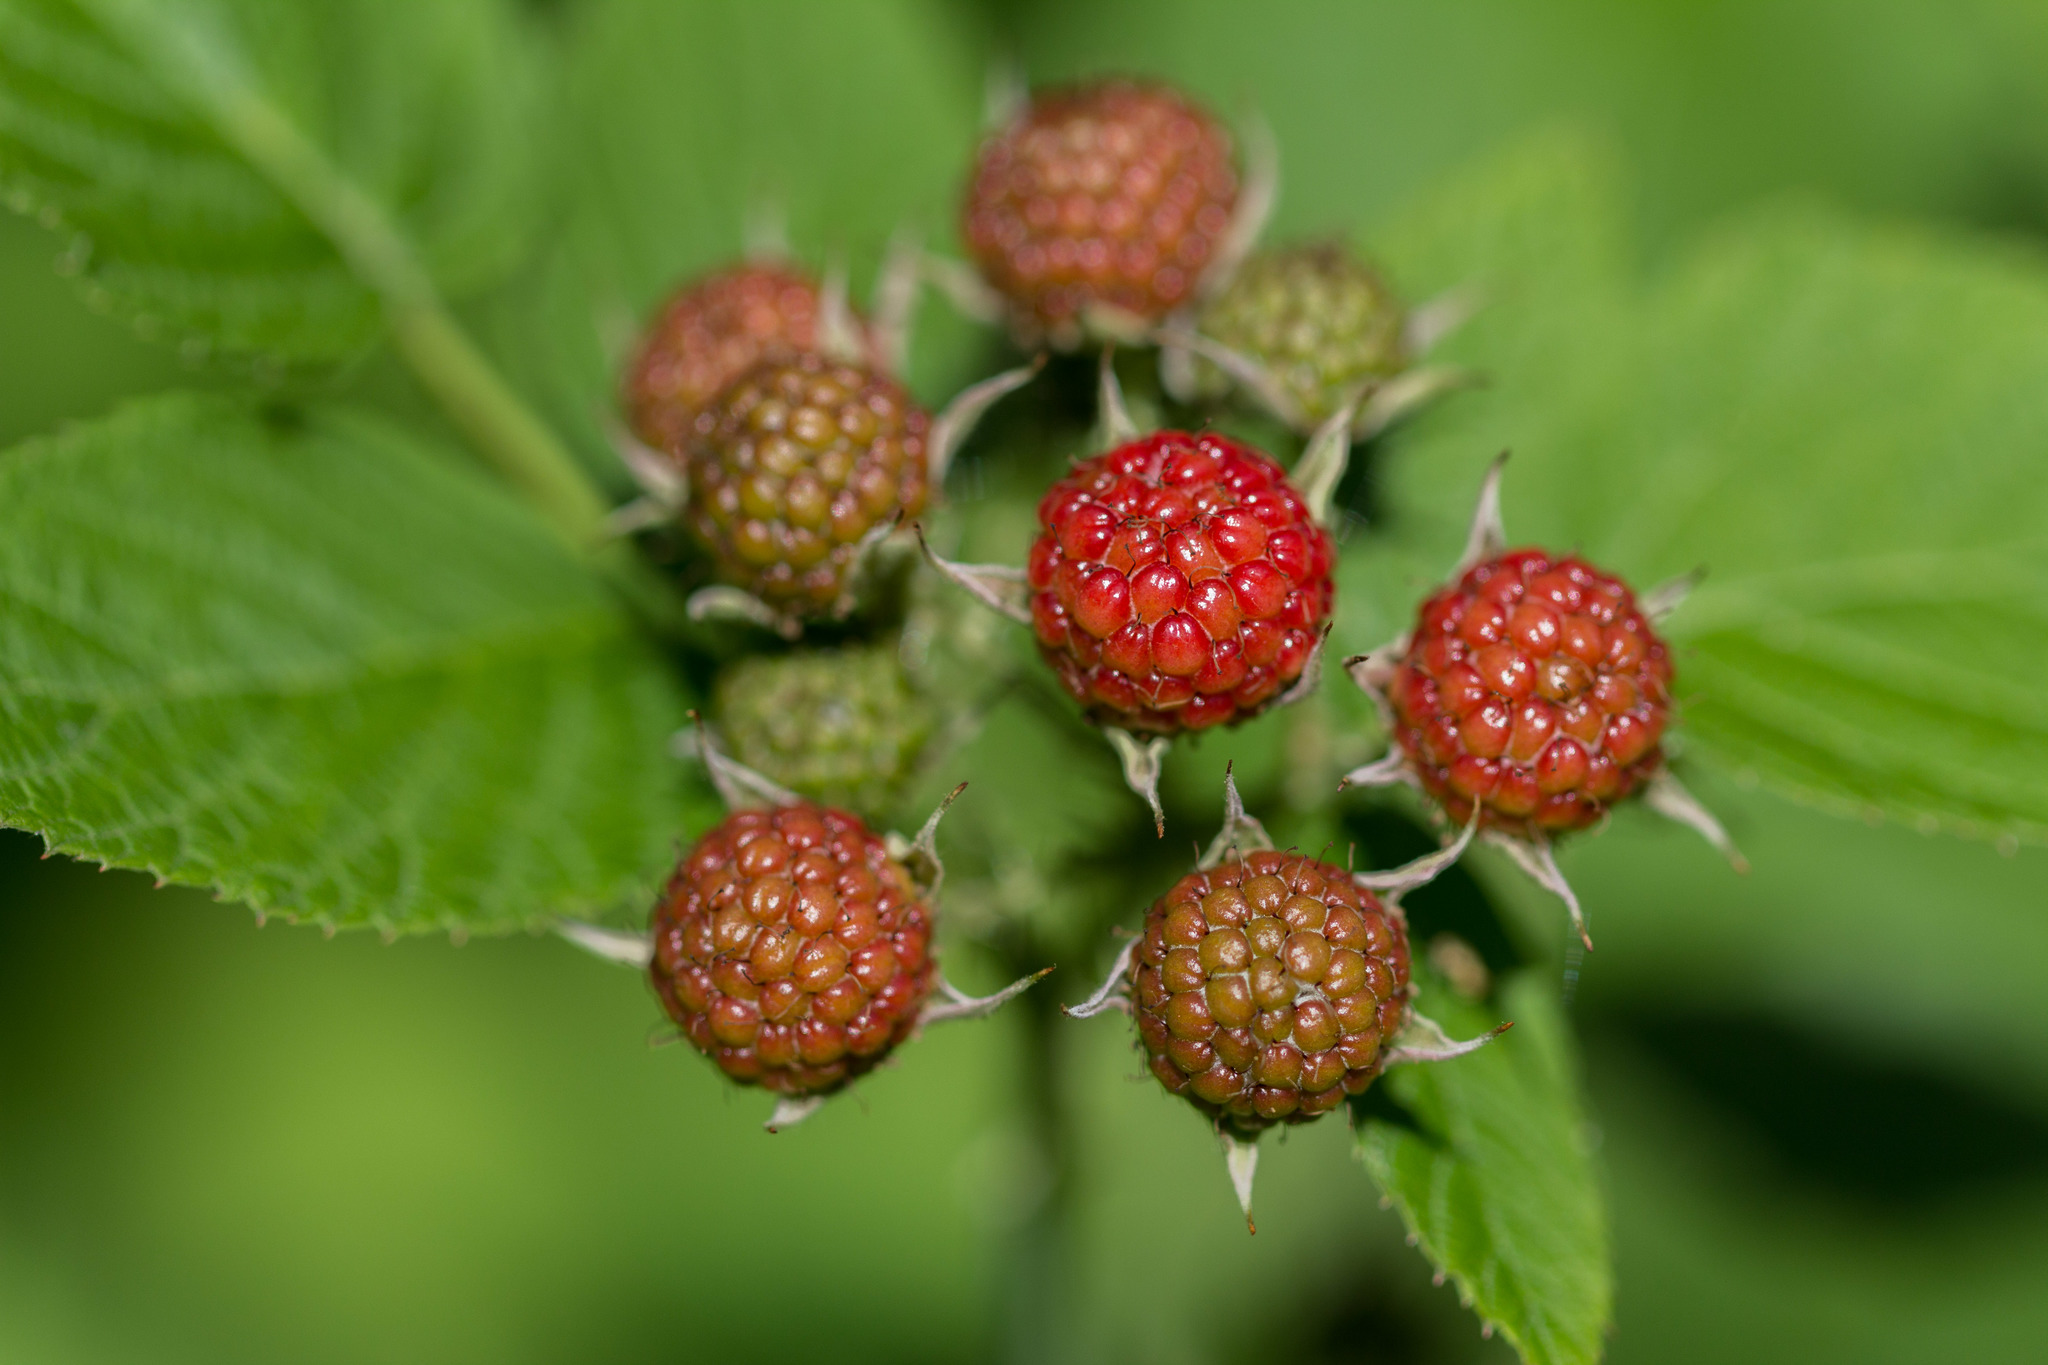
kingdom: Plantae
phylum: Tracheophyta
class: Magnoliopsida
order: Rosales
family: Rosaceae
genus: Rubus
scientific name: Rubus occidentalis
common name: Black raspberry
